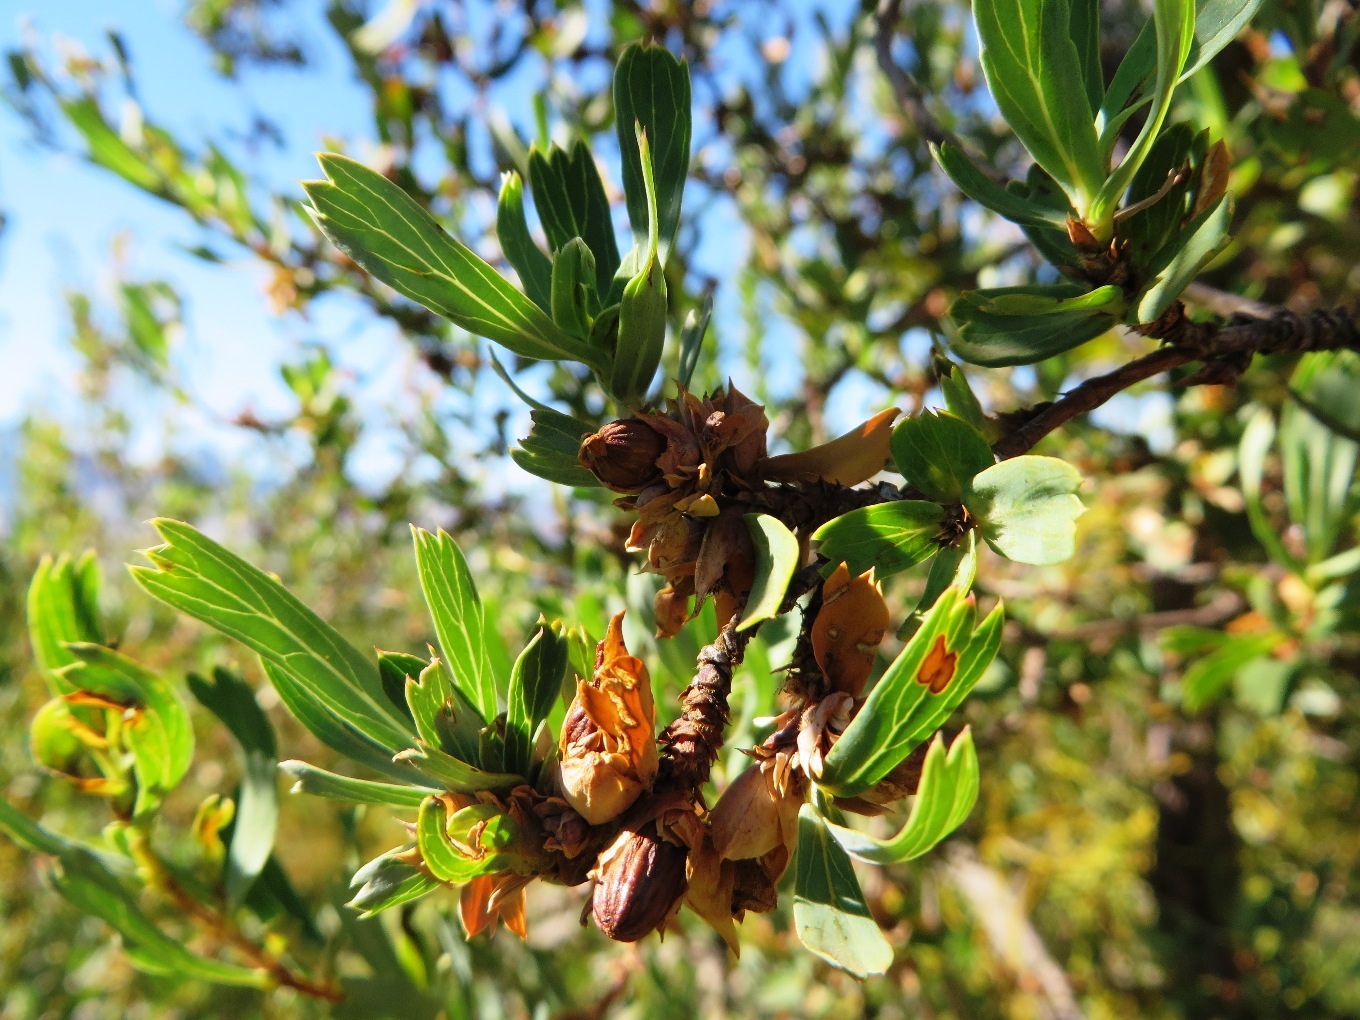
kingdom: Plantae
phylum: Tracheophyta
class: Magnoliopsida
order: Rosales
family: Rosaceae
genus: Cliffortia
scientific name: Cliffortia cuneata
